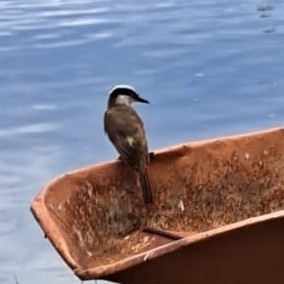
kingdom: Animalia
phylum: Chordata
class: Aves
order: Passeriformes
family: Tyrannidae
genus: Pitangus
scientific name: Pitangus sulphuratus
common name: Great kiskadee
